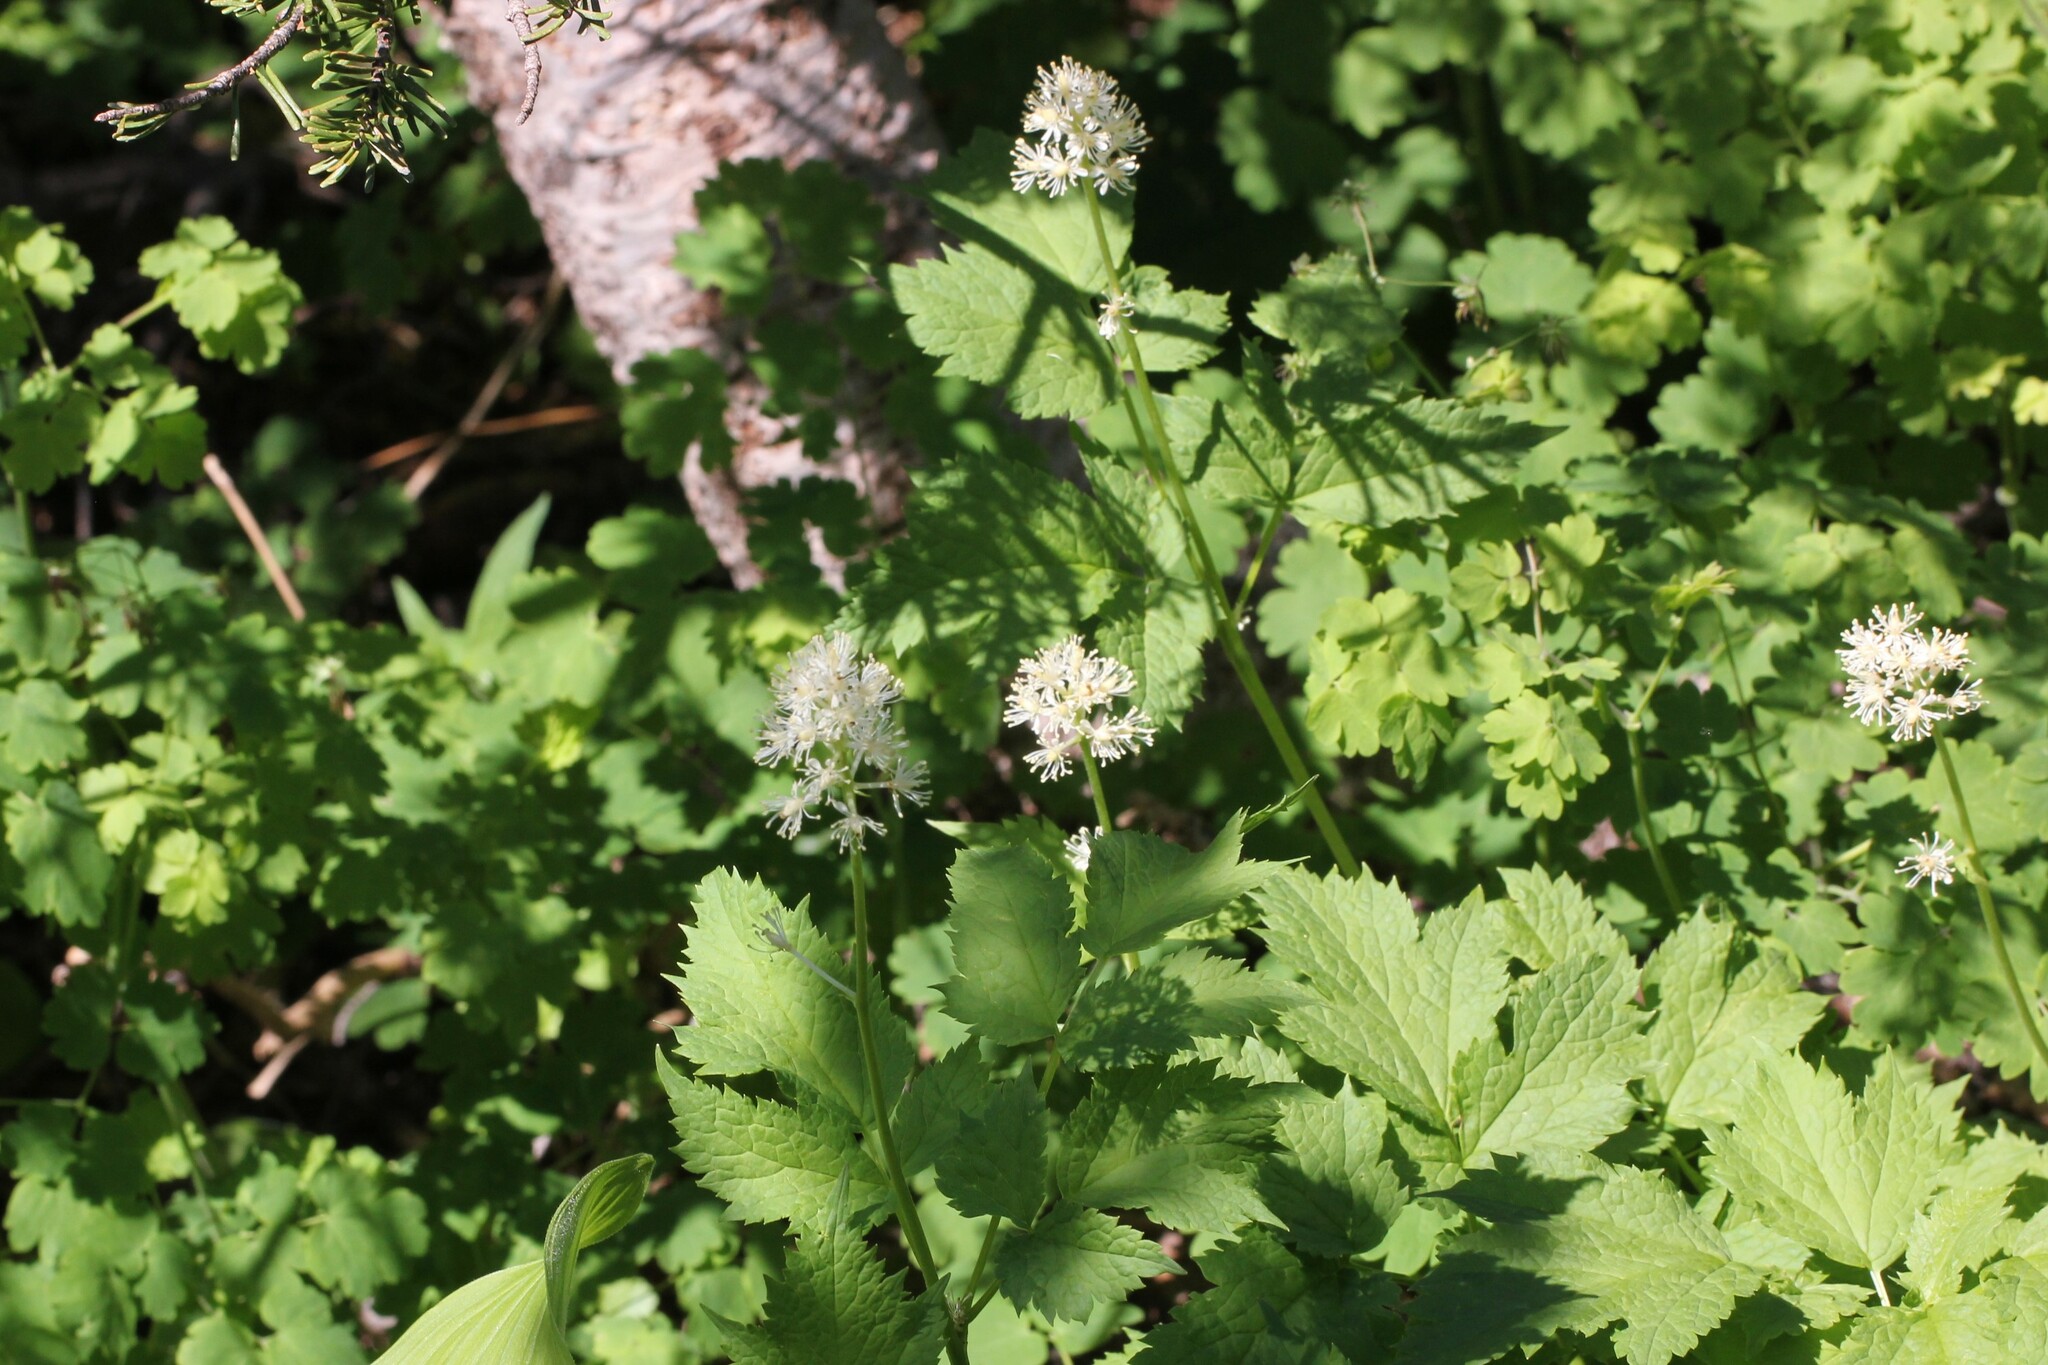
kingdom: Plantae
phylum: Tracheophyta
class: Magnoliopsida
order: Ranunculales
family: Ranunculaceae
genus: Actaea
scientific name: Actaea rubra
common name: Red baneberry
